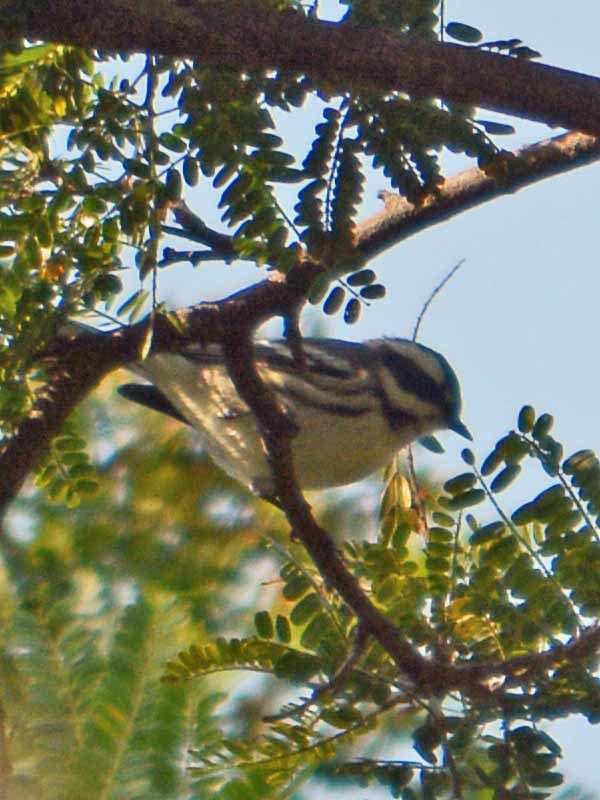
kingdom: Animalia
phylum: Chordata
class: Aves
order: Passeriformes
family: Parulidae
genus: Setophaga
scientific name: Setophaga nigrescens
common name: Black-throated gray warbler
